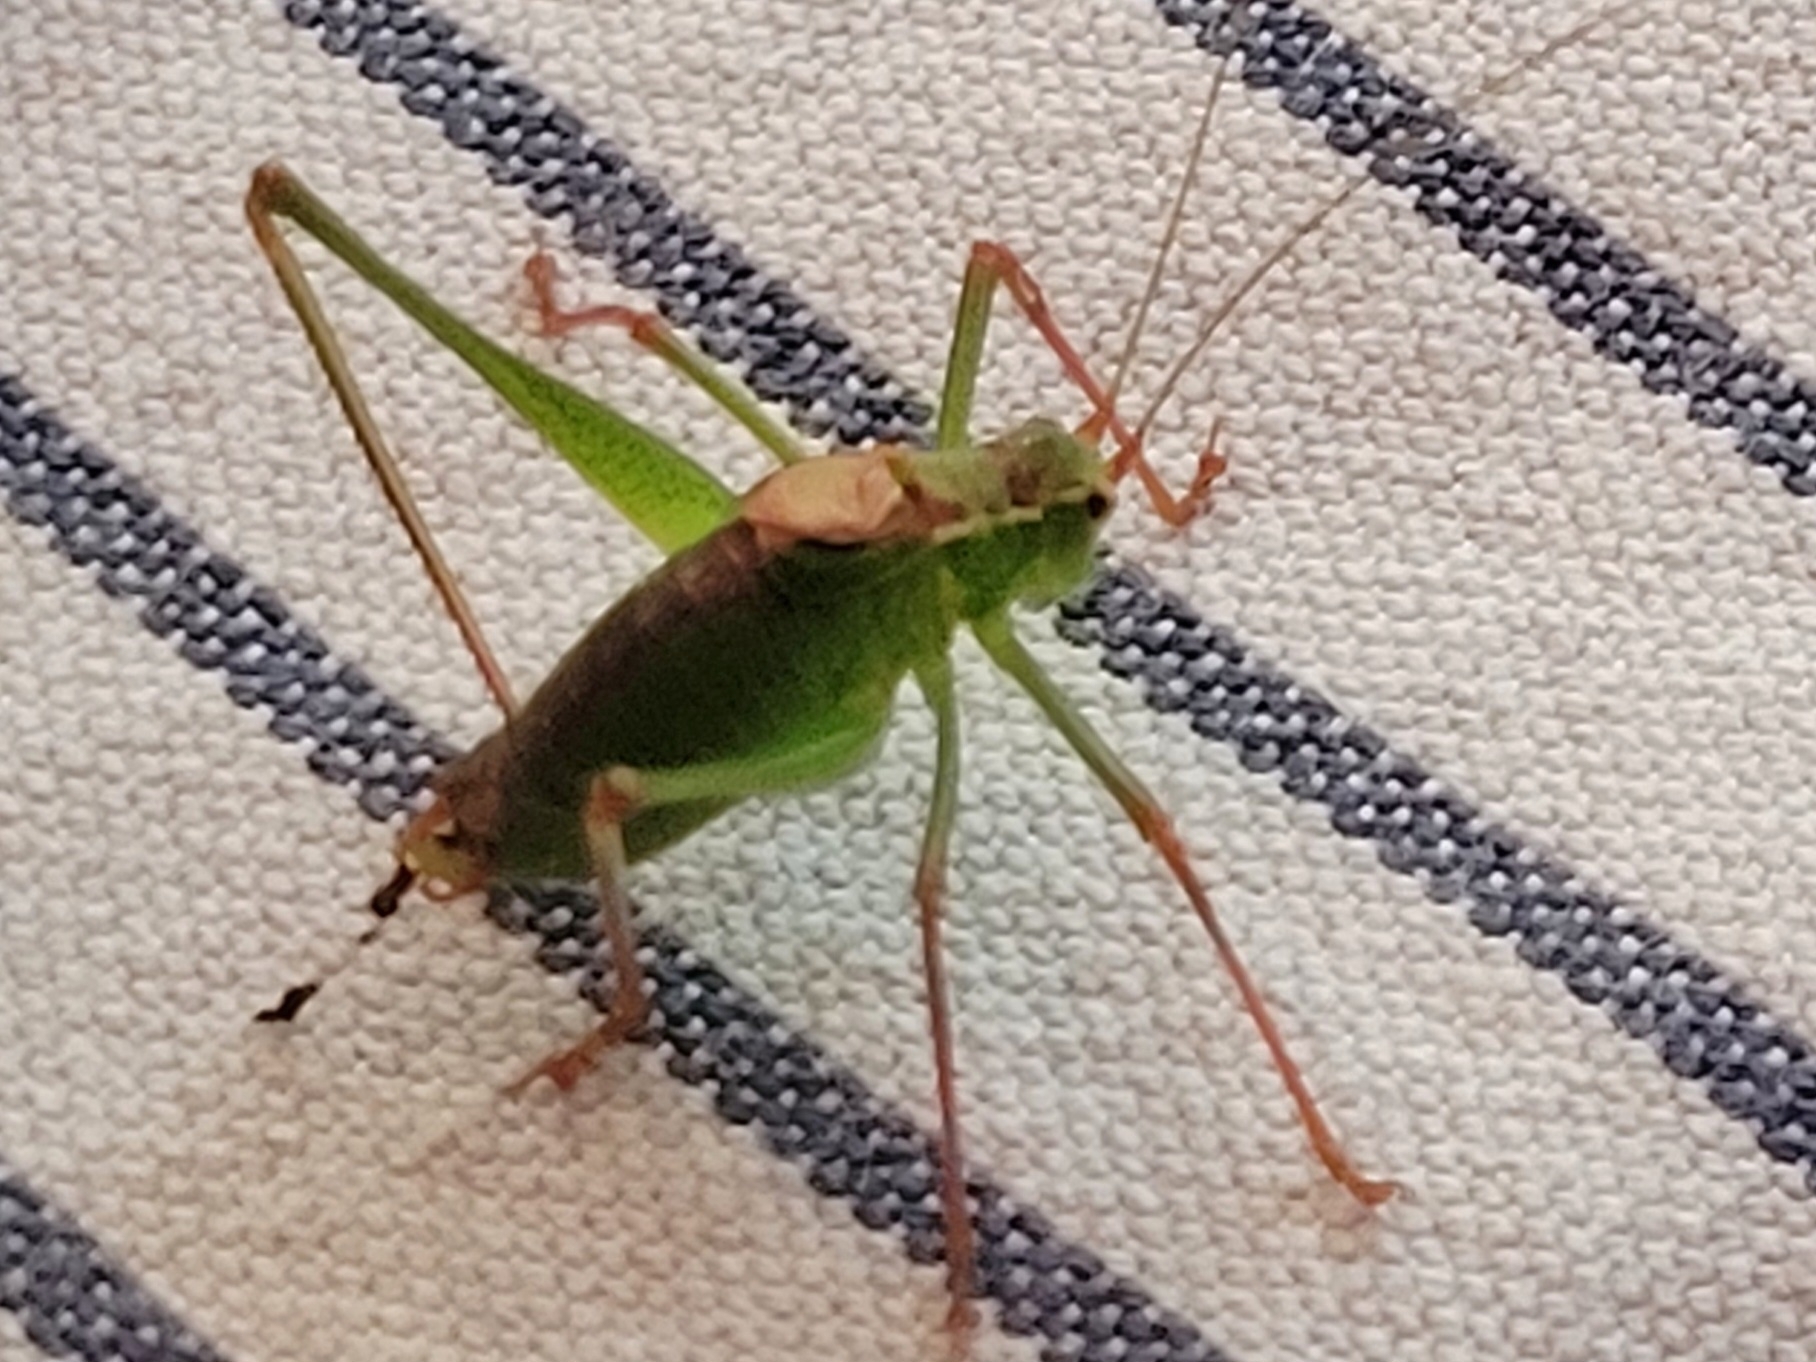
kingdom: Animalia
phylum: Arthropoda
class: Insecta
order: Orthoptera
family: Tettigoniidae
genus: Leptophyes
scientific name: Leptophyes punctatissima
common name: Speckled bush-cricket
